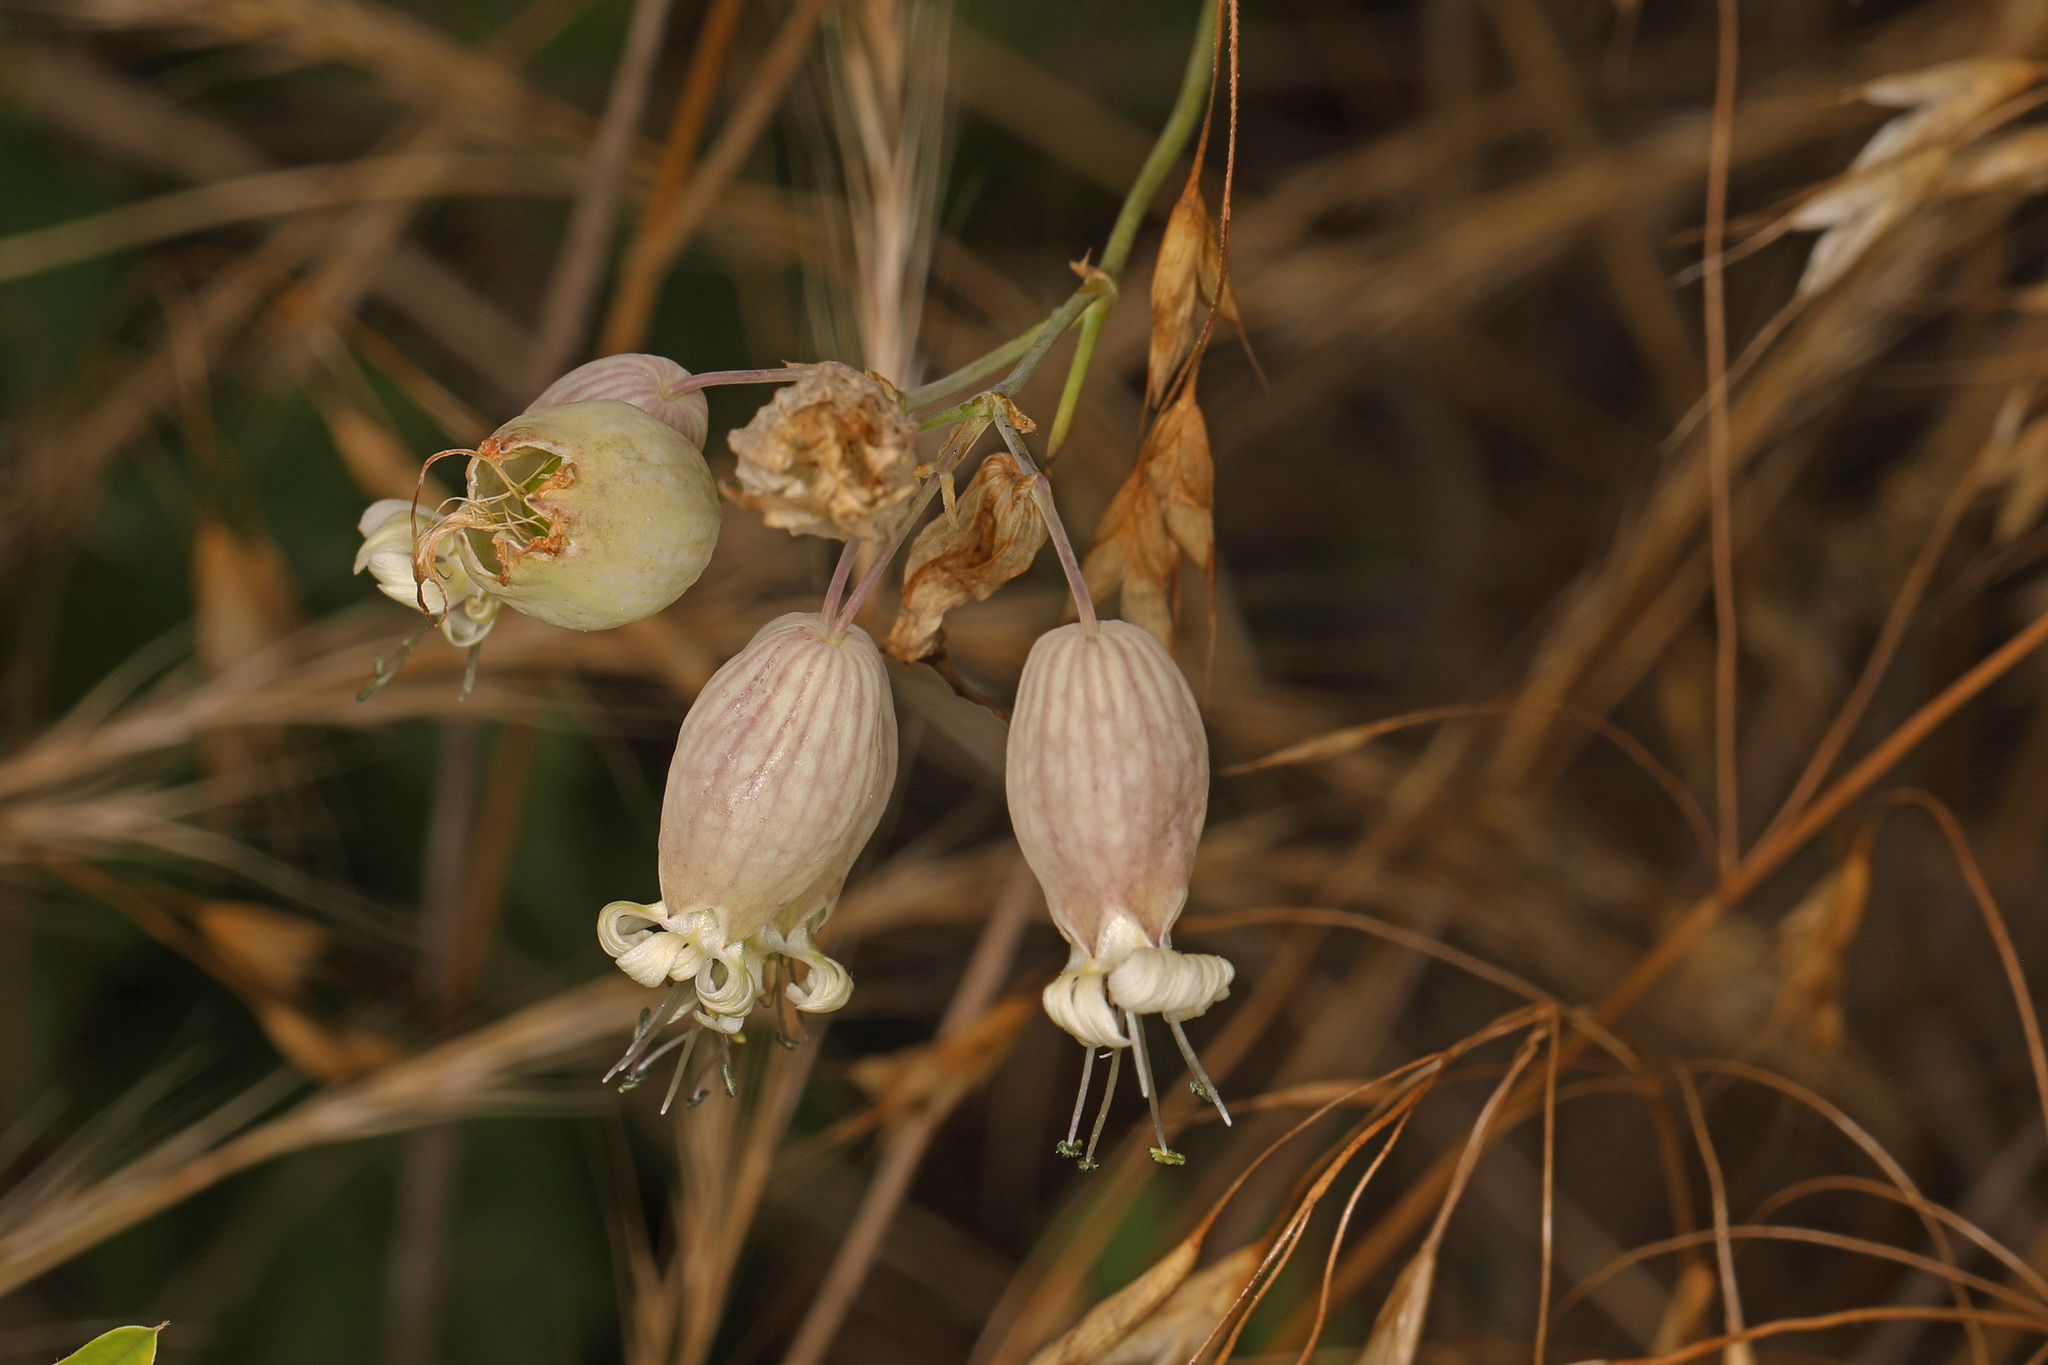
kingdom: Plantae
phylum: Tracheophyta
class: Magnoliopsida
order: Caryophyllales
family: Caryophyllaceae
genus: Silene
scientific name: Silene vulgaris
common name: Bladder campion
